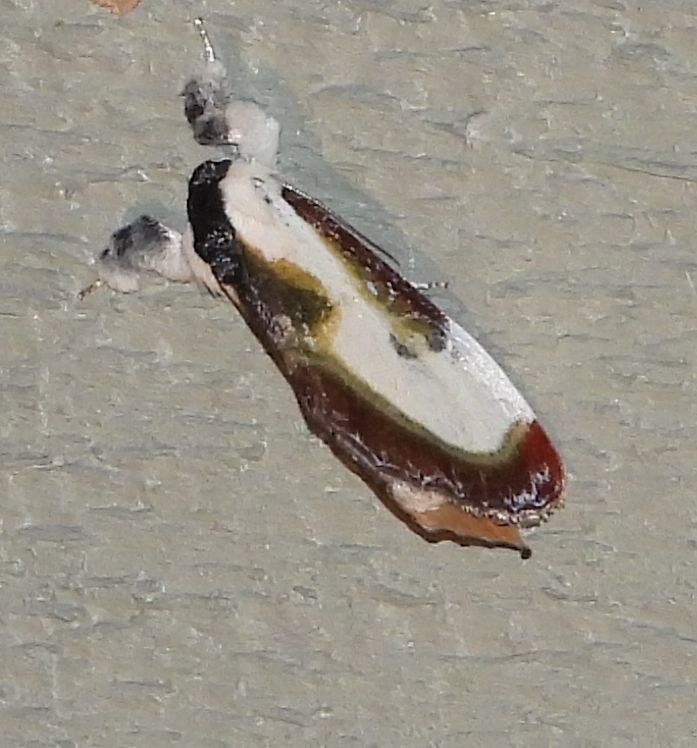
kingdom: Animalia
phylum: Arthropoda
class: Insecta
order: Lepidoptera
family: Noctuidae
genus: Eudryas
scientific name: Eudryas grata
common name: Beautiful wood-nymph
